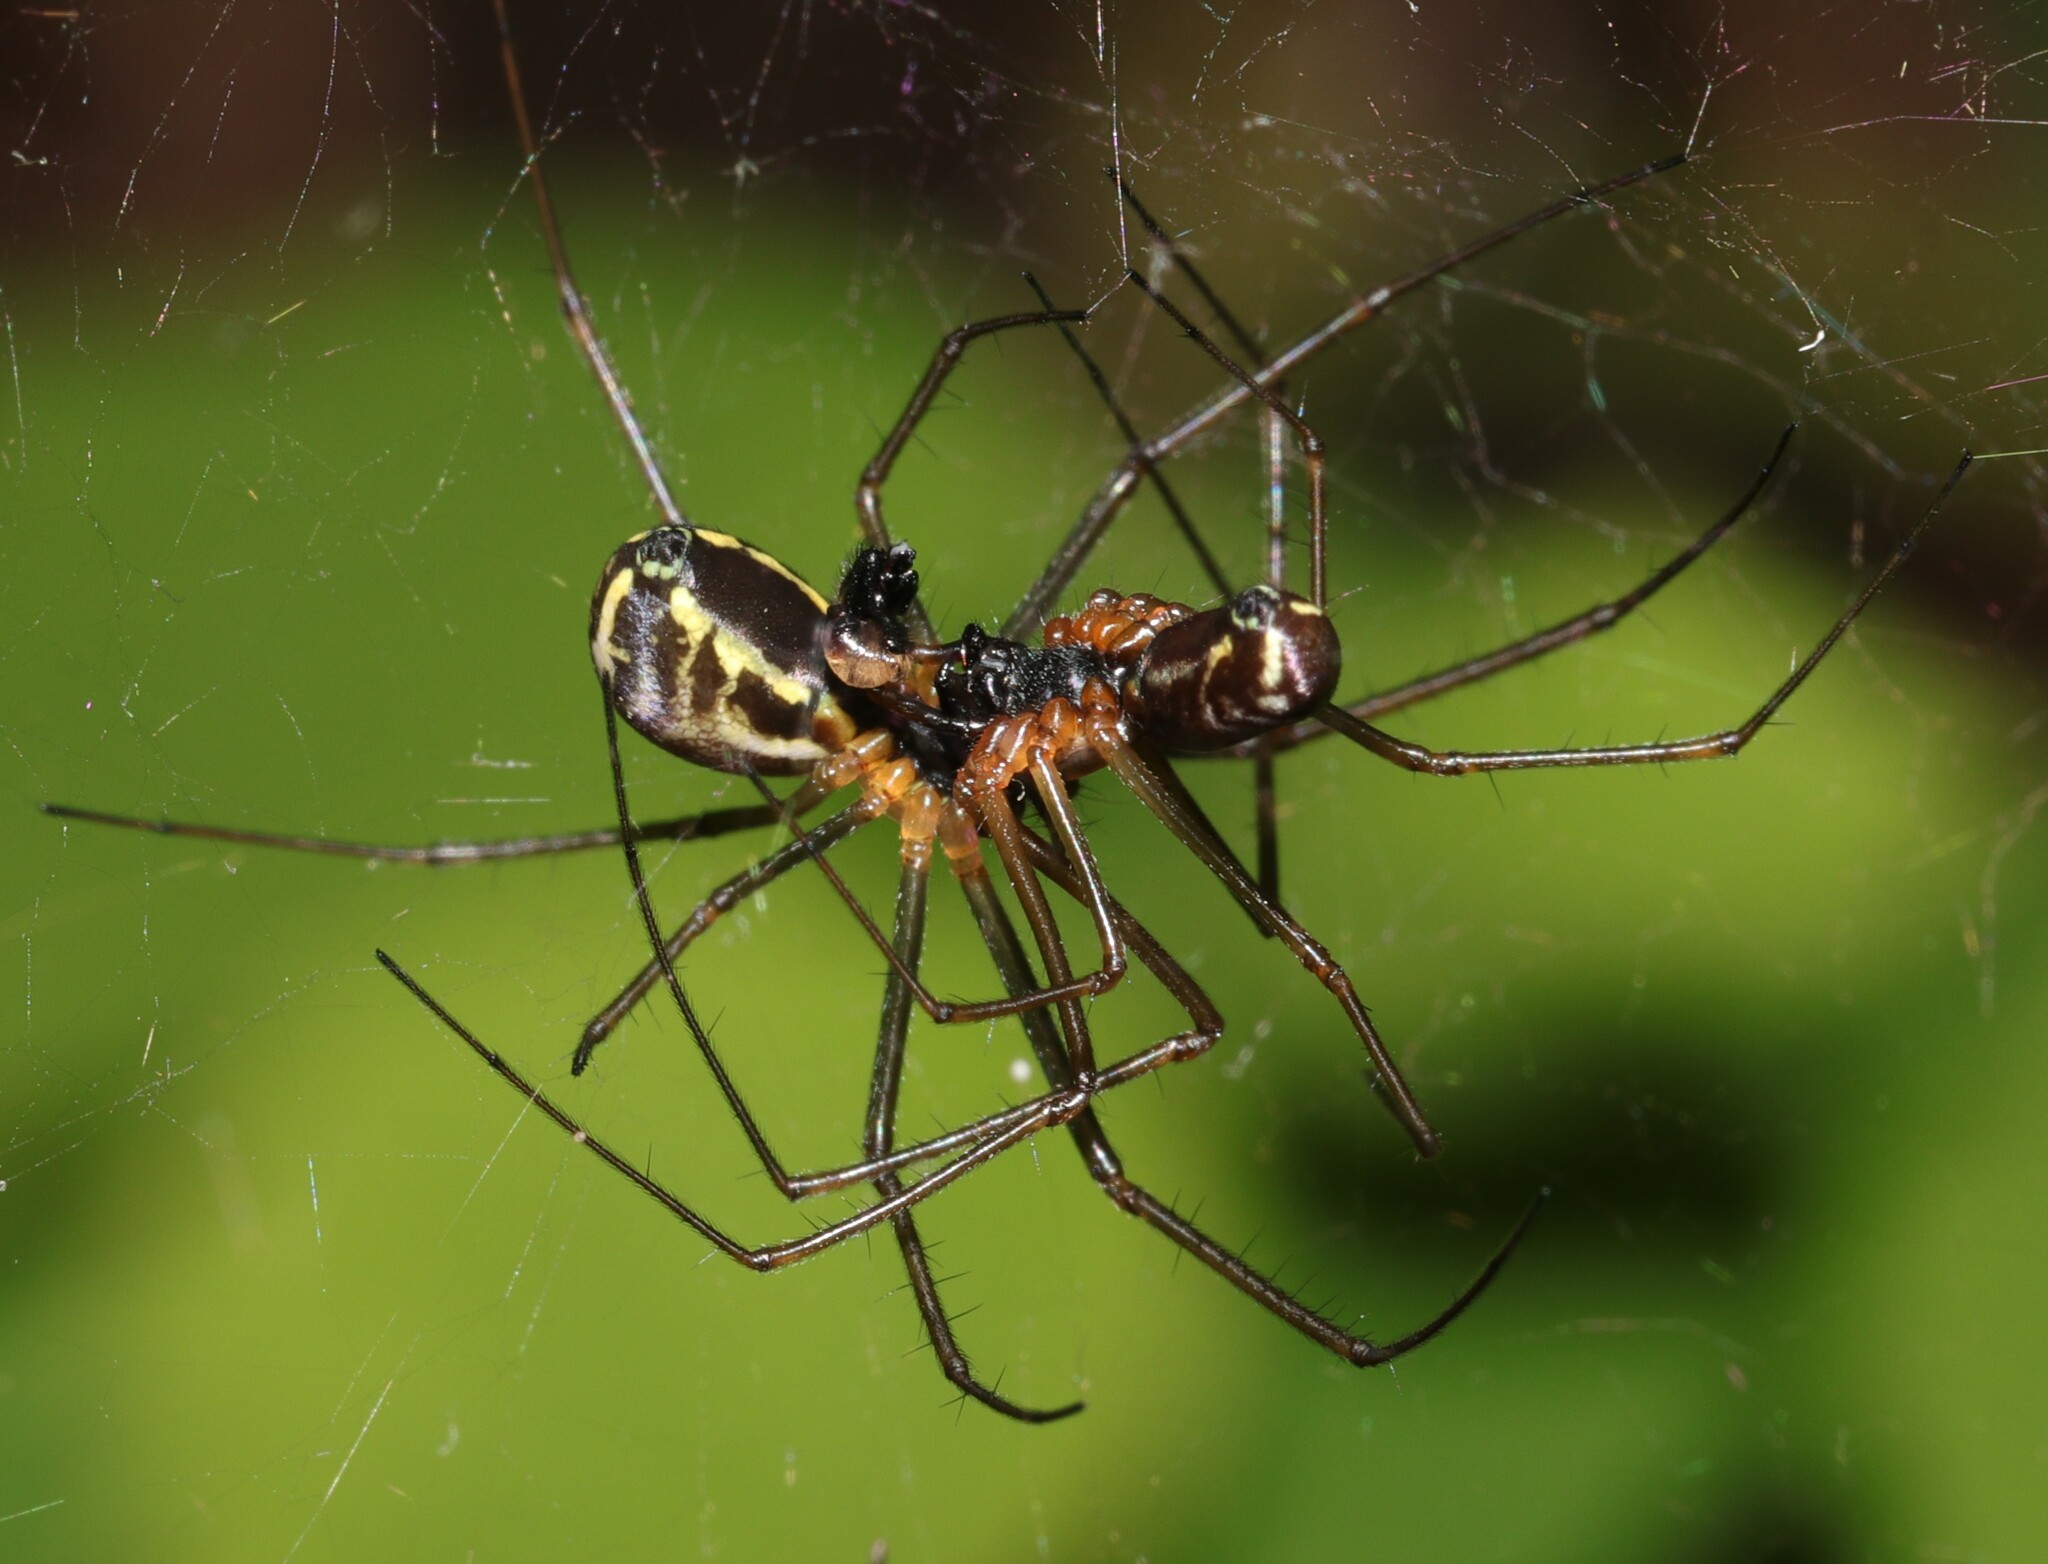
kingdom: Animalia
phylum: Arthropoda
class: Arachnida
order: Araneae
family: Linyphiidae
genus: Neriene
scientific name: Neriene radiata
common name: Filmy dome spider
